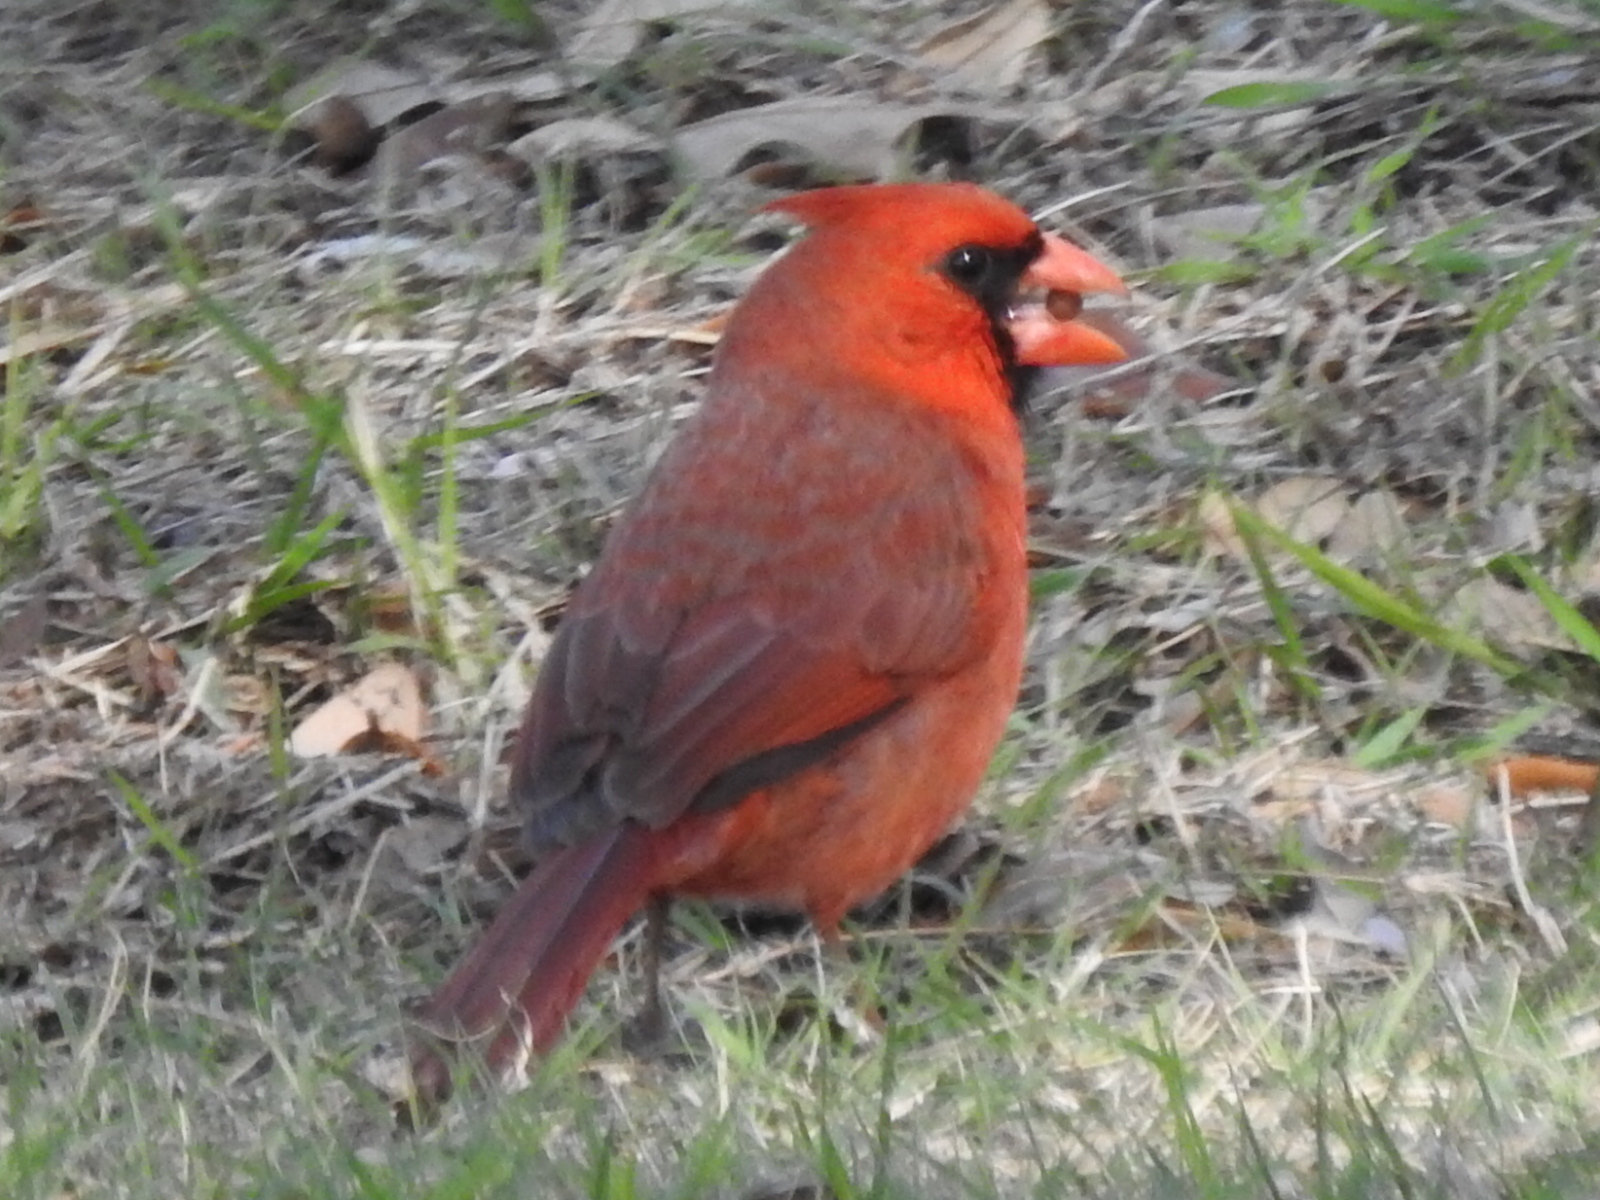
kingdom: Animalia
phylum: Chordata
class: Aves
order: Passeriformes
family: Cardinalidae
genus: Cardinalis
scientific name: Cardinalis cardinalis
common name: Northern cardinal
